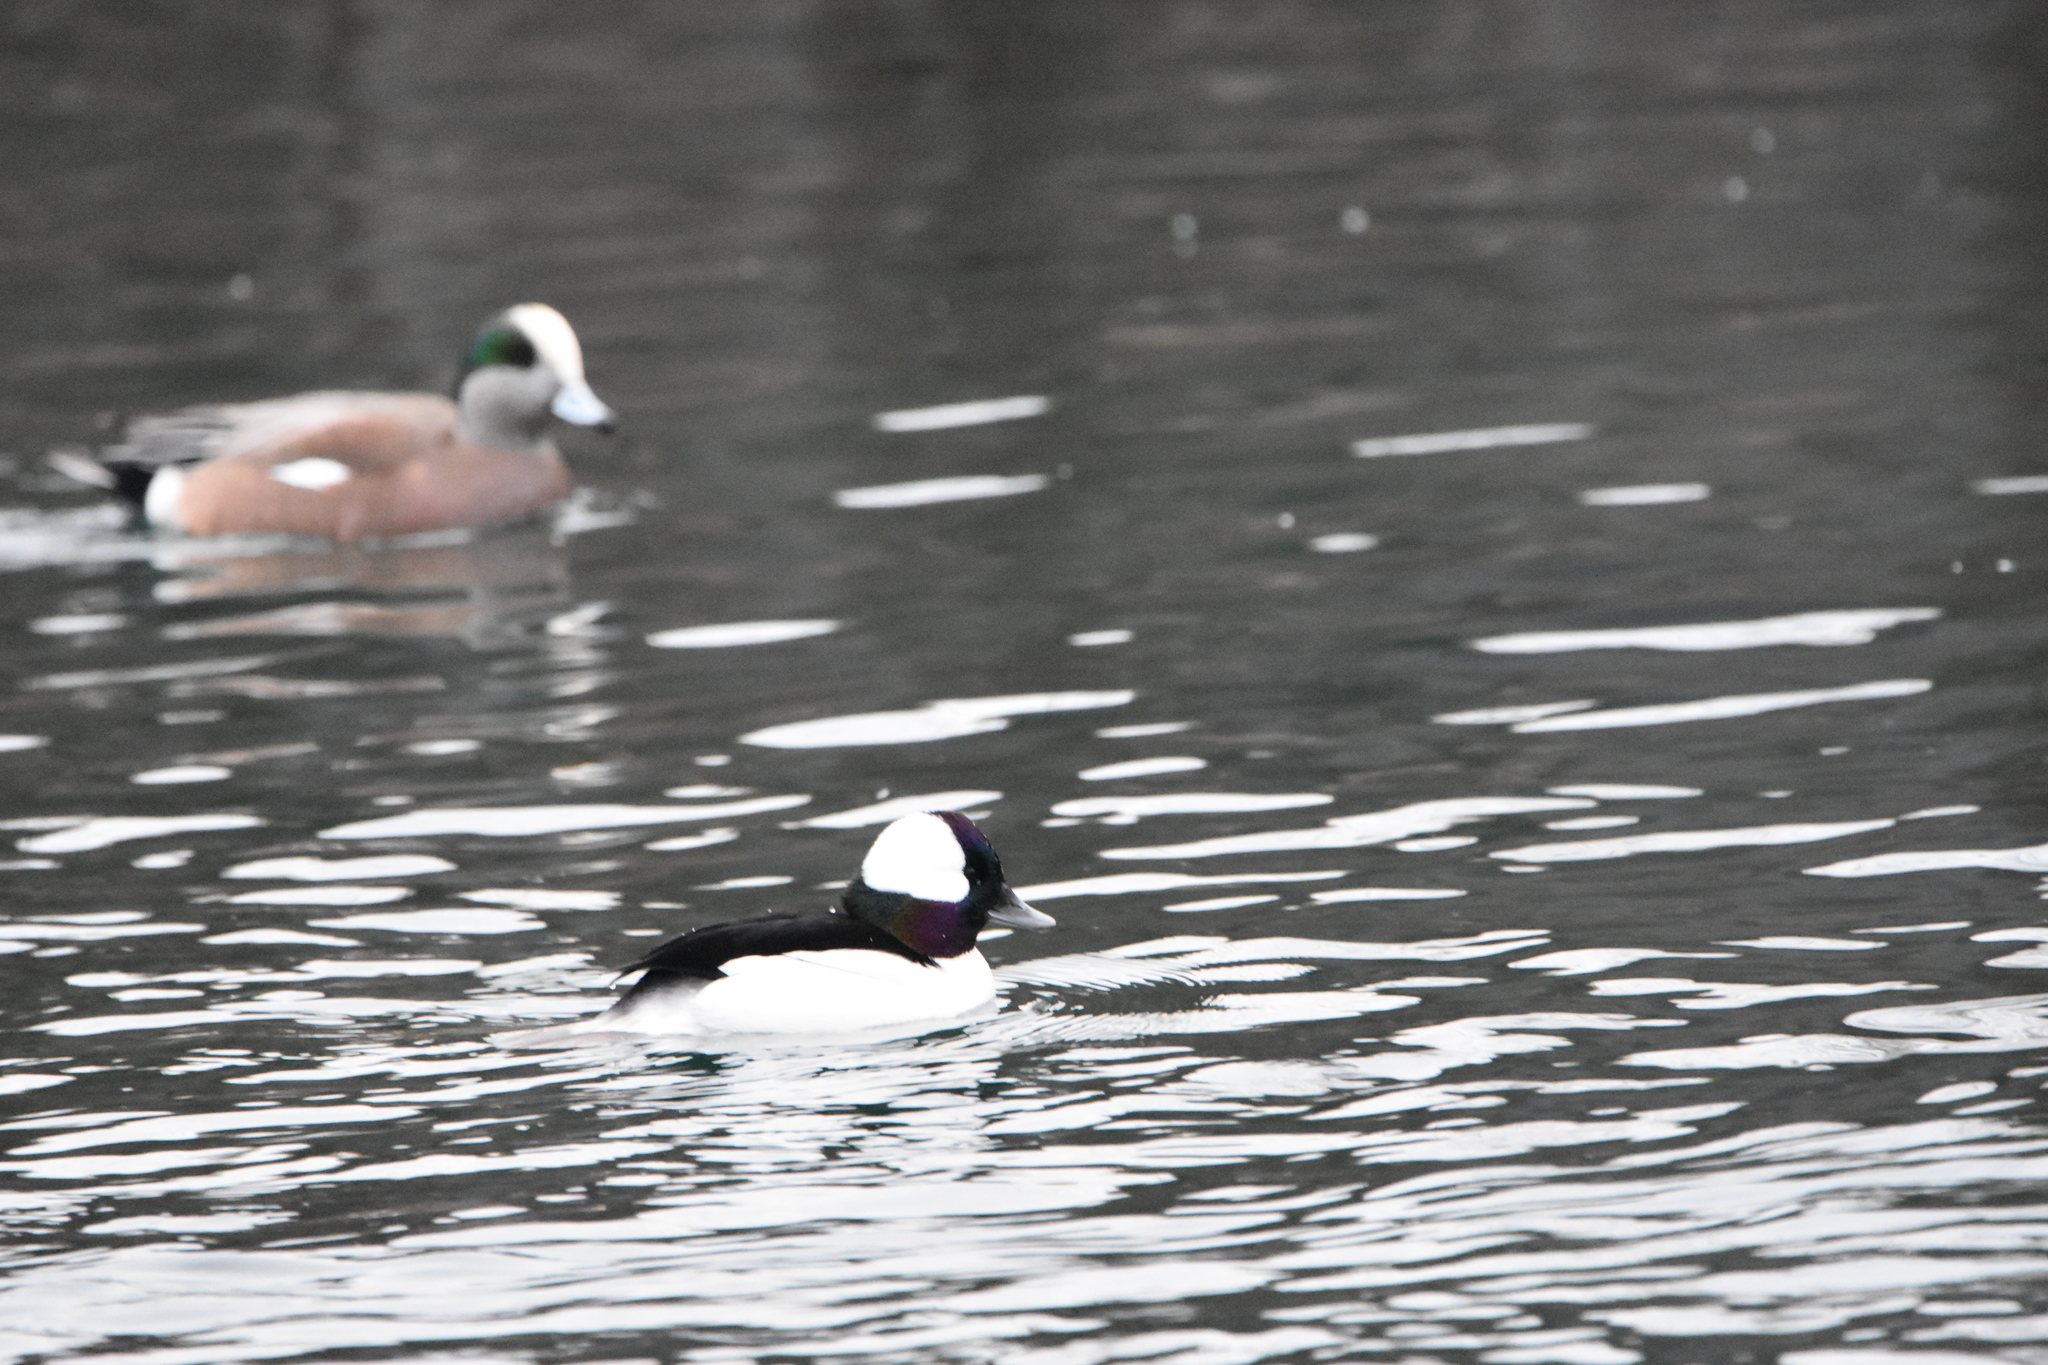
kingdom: Animalia
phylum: Chordata
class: Aves
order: Anseriformes
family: Anatidae
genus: Bucephala
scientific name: Bucephala albeola
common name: Bufflehead
